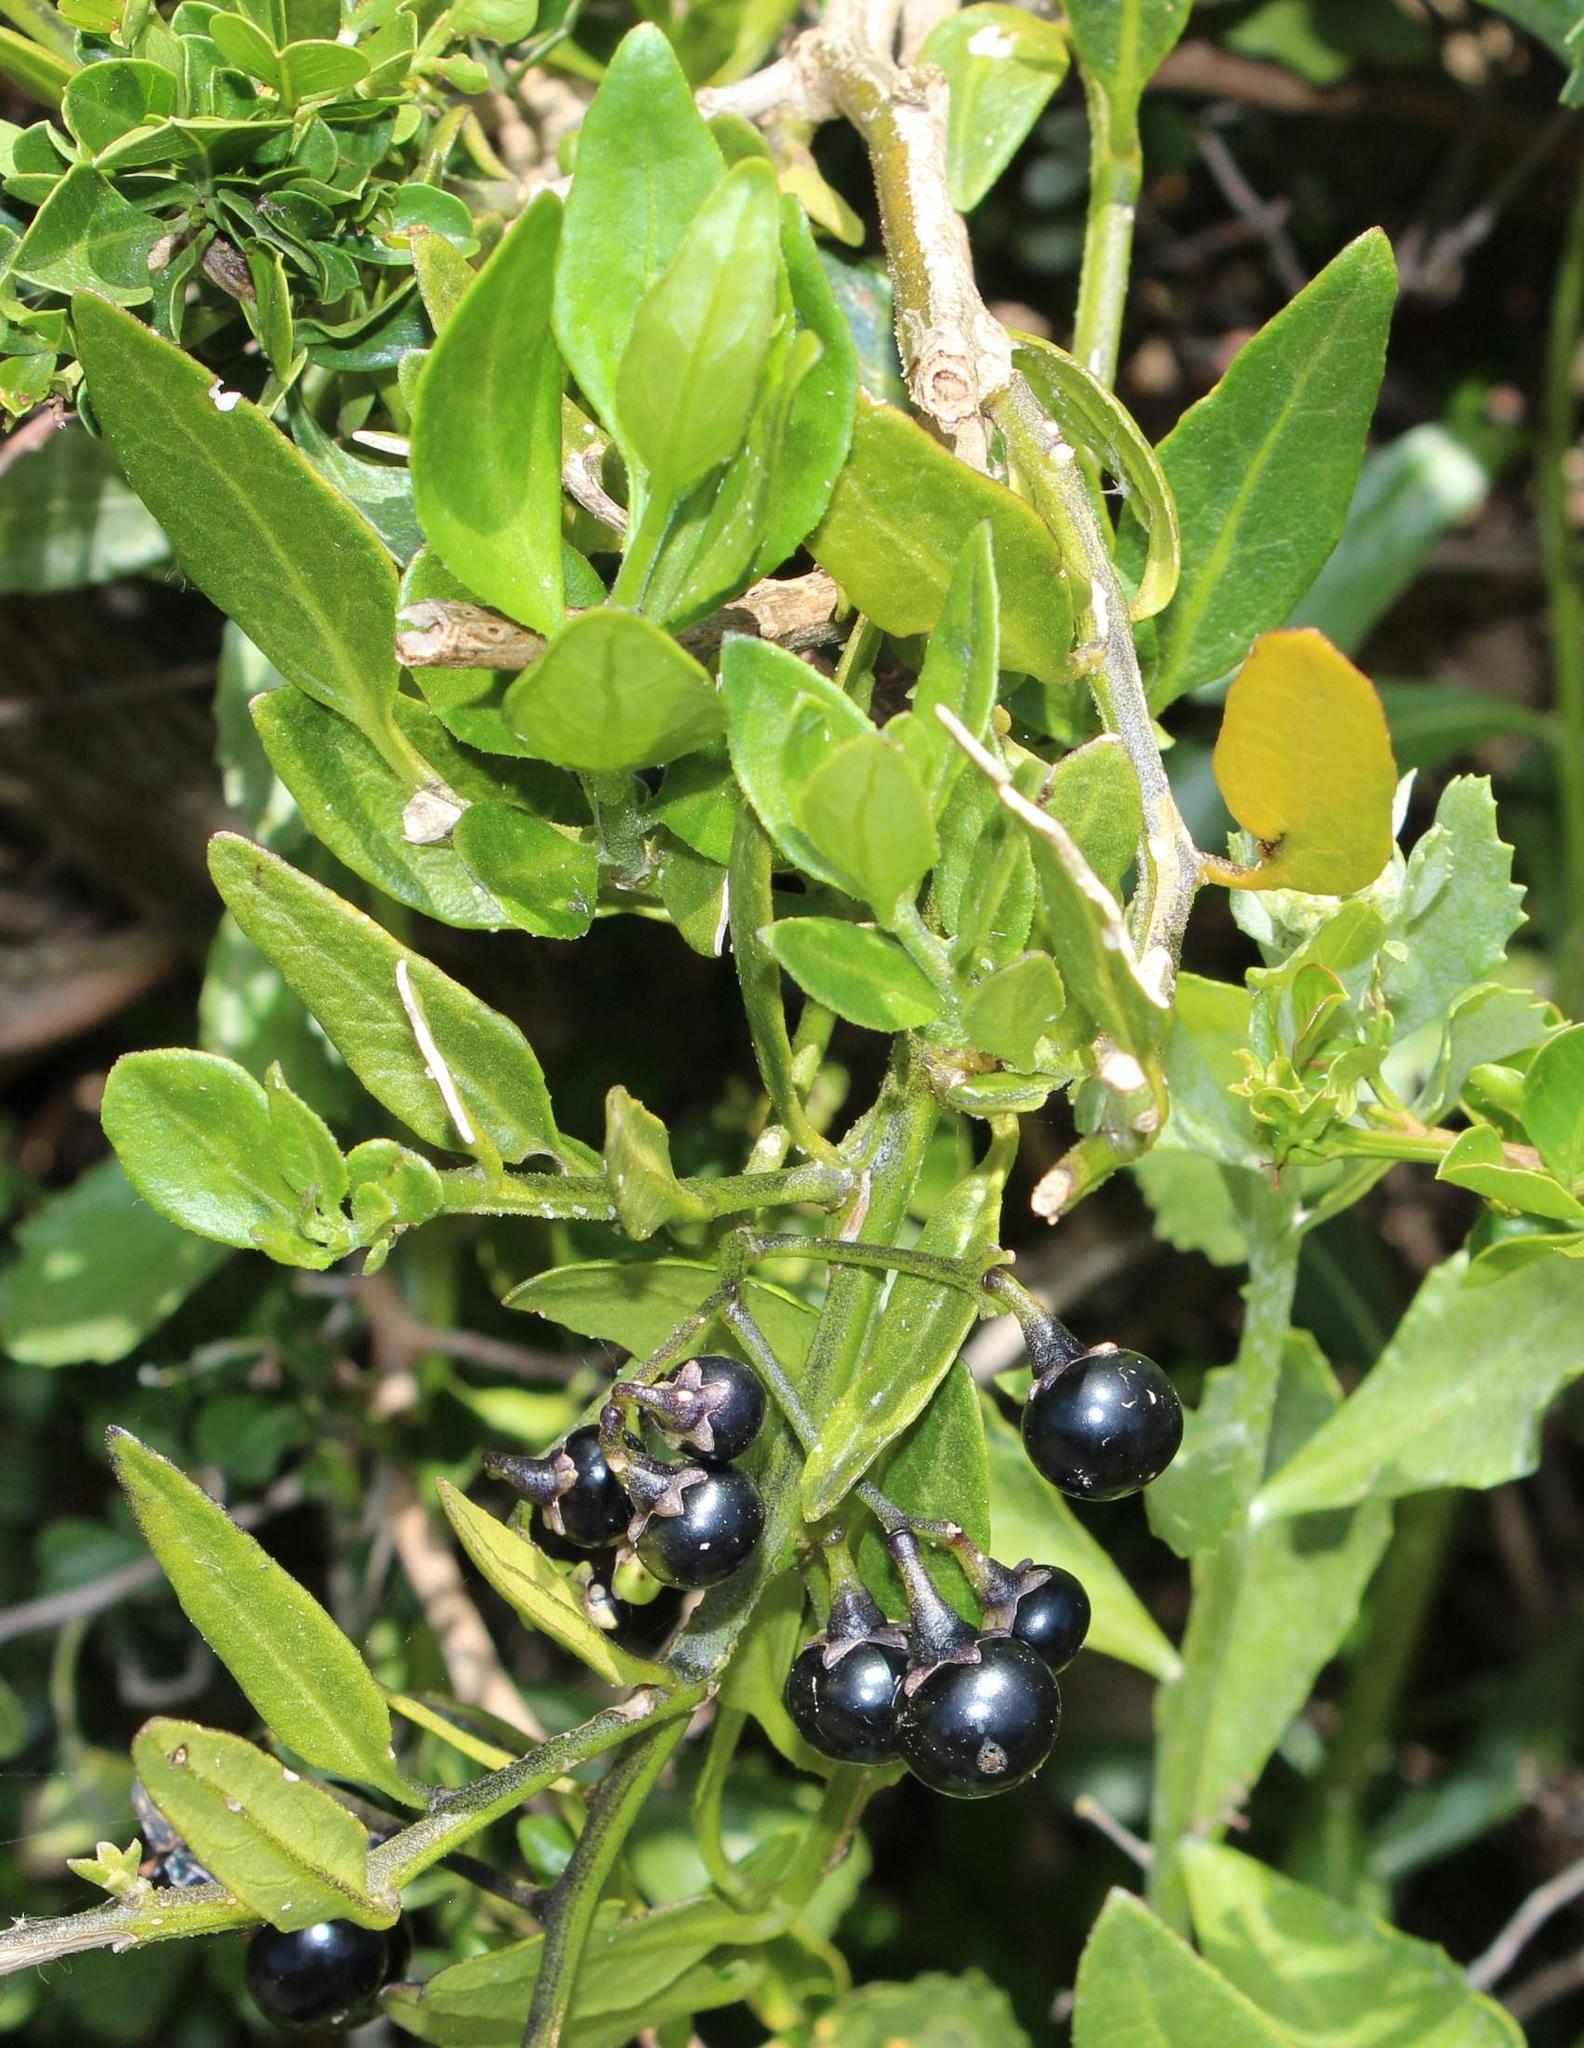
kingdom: Plantae
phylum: Tracheophyta
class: Magnoliopsida
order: Solanales
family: Solanaceae
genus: Solanum
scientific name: Solanum africanum
